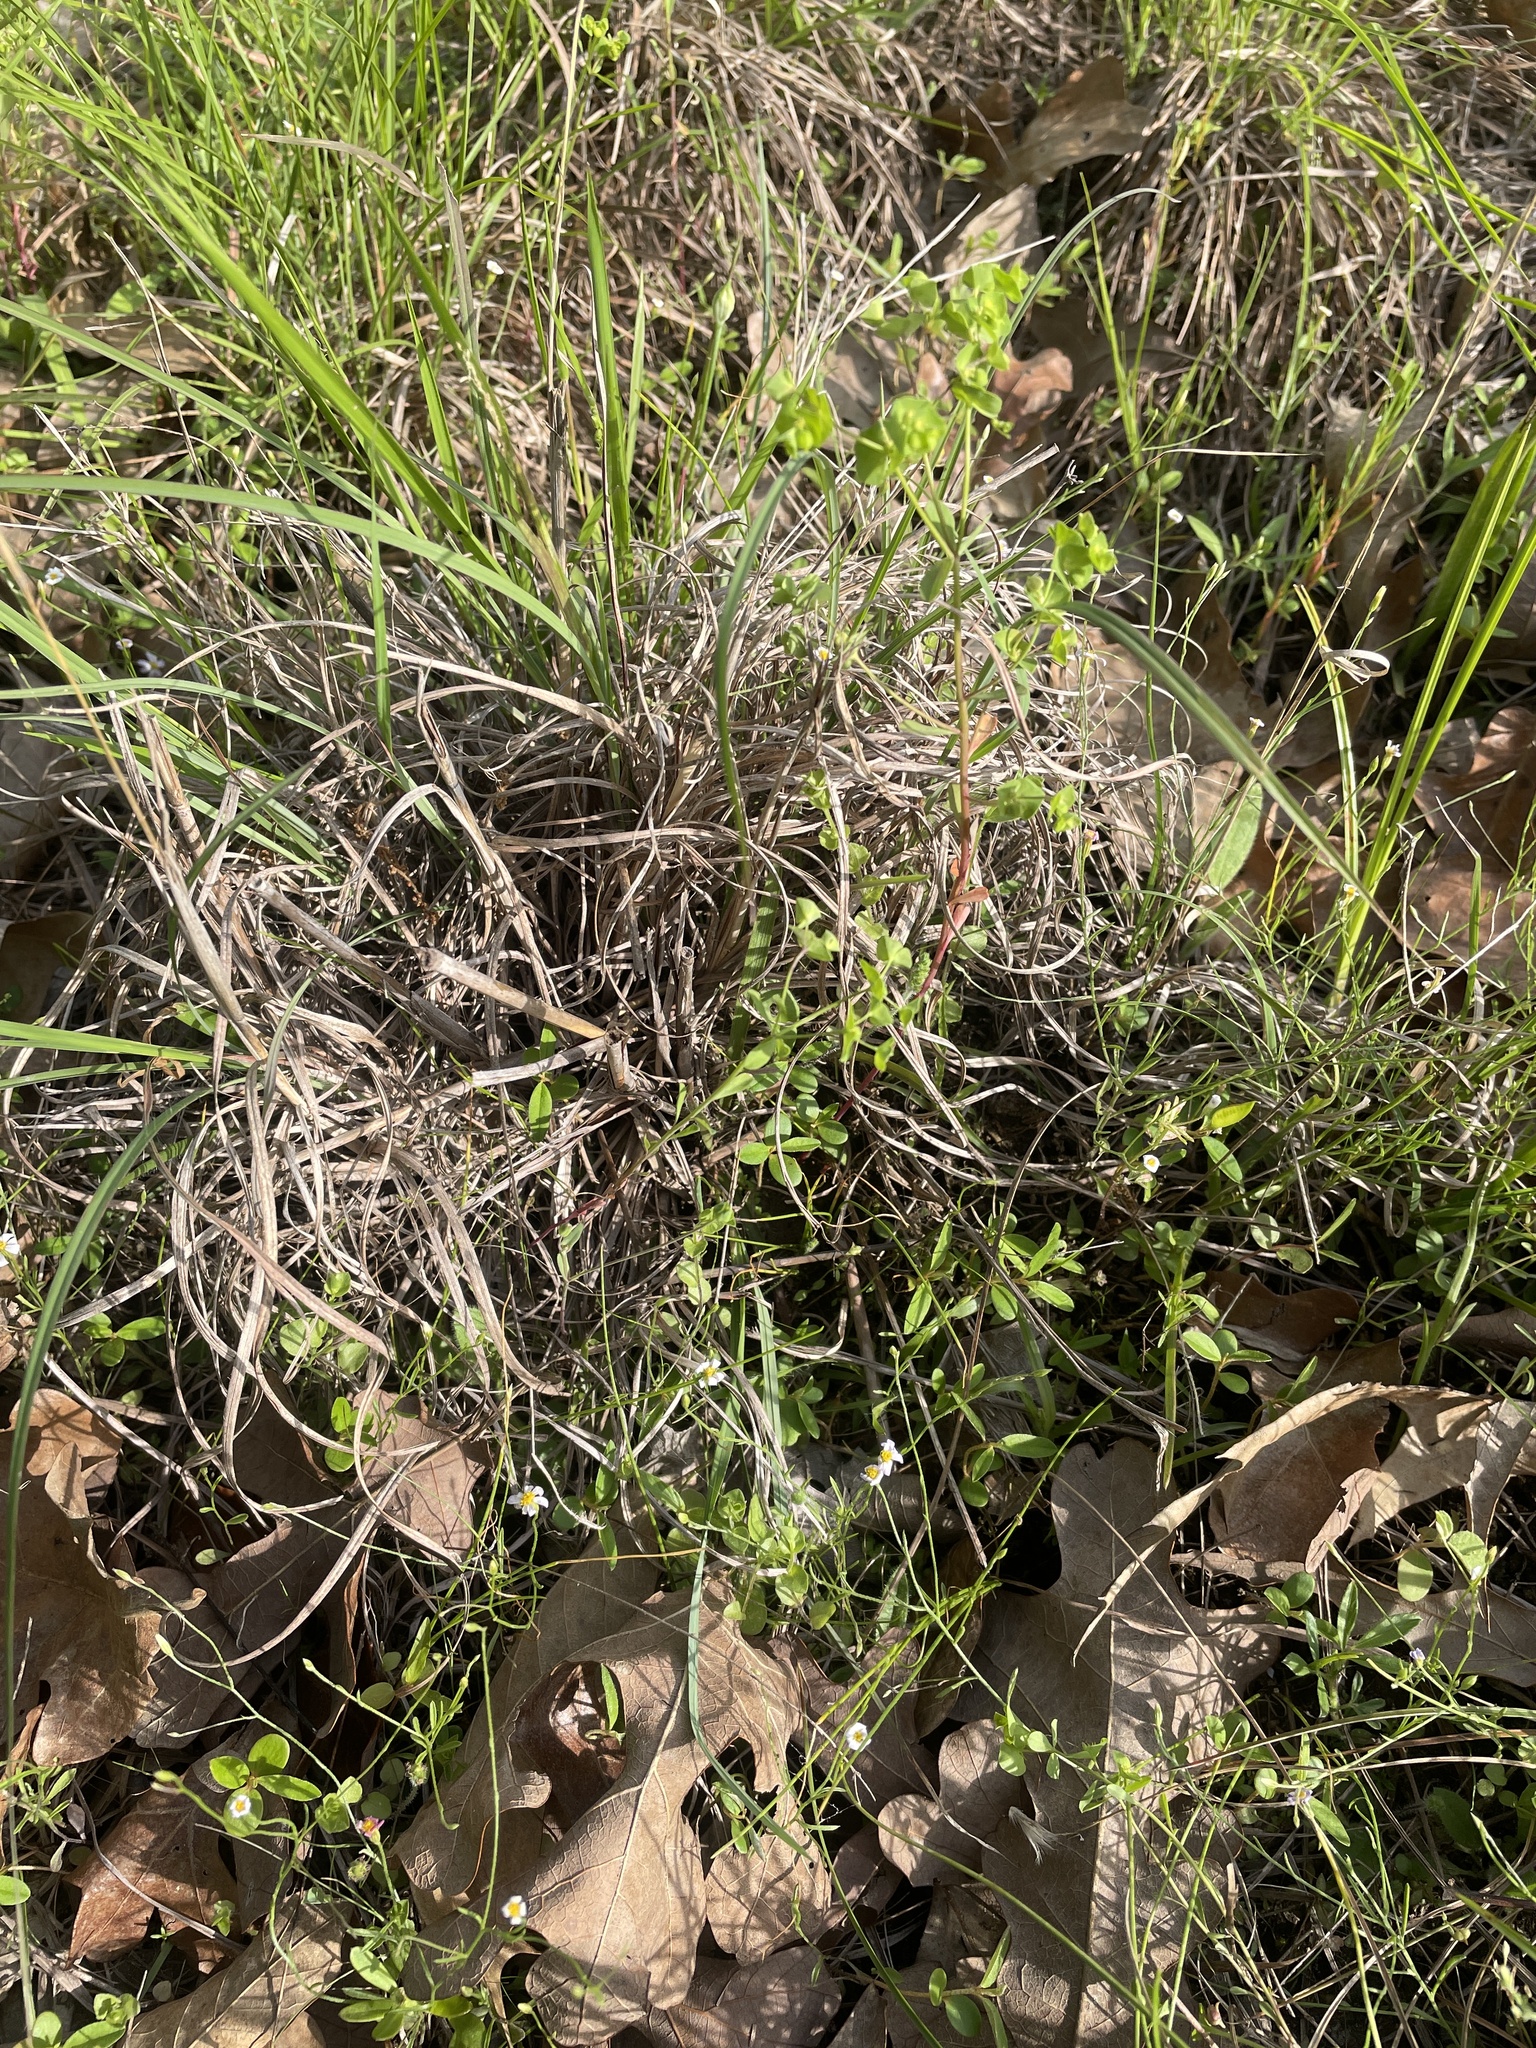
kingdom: Plantae
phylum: Tracheophyta
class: Magnoliopsida
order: Malpighiales
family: Euphorbiaceae
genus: Euphorbia
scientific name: Euphorbia tetrapora
